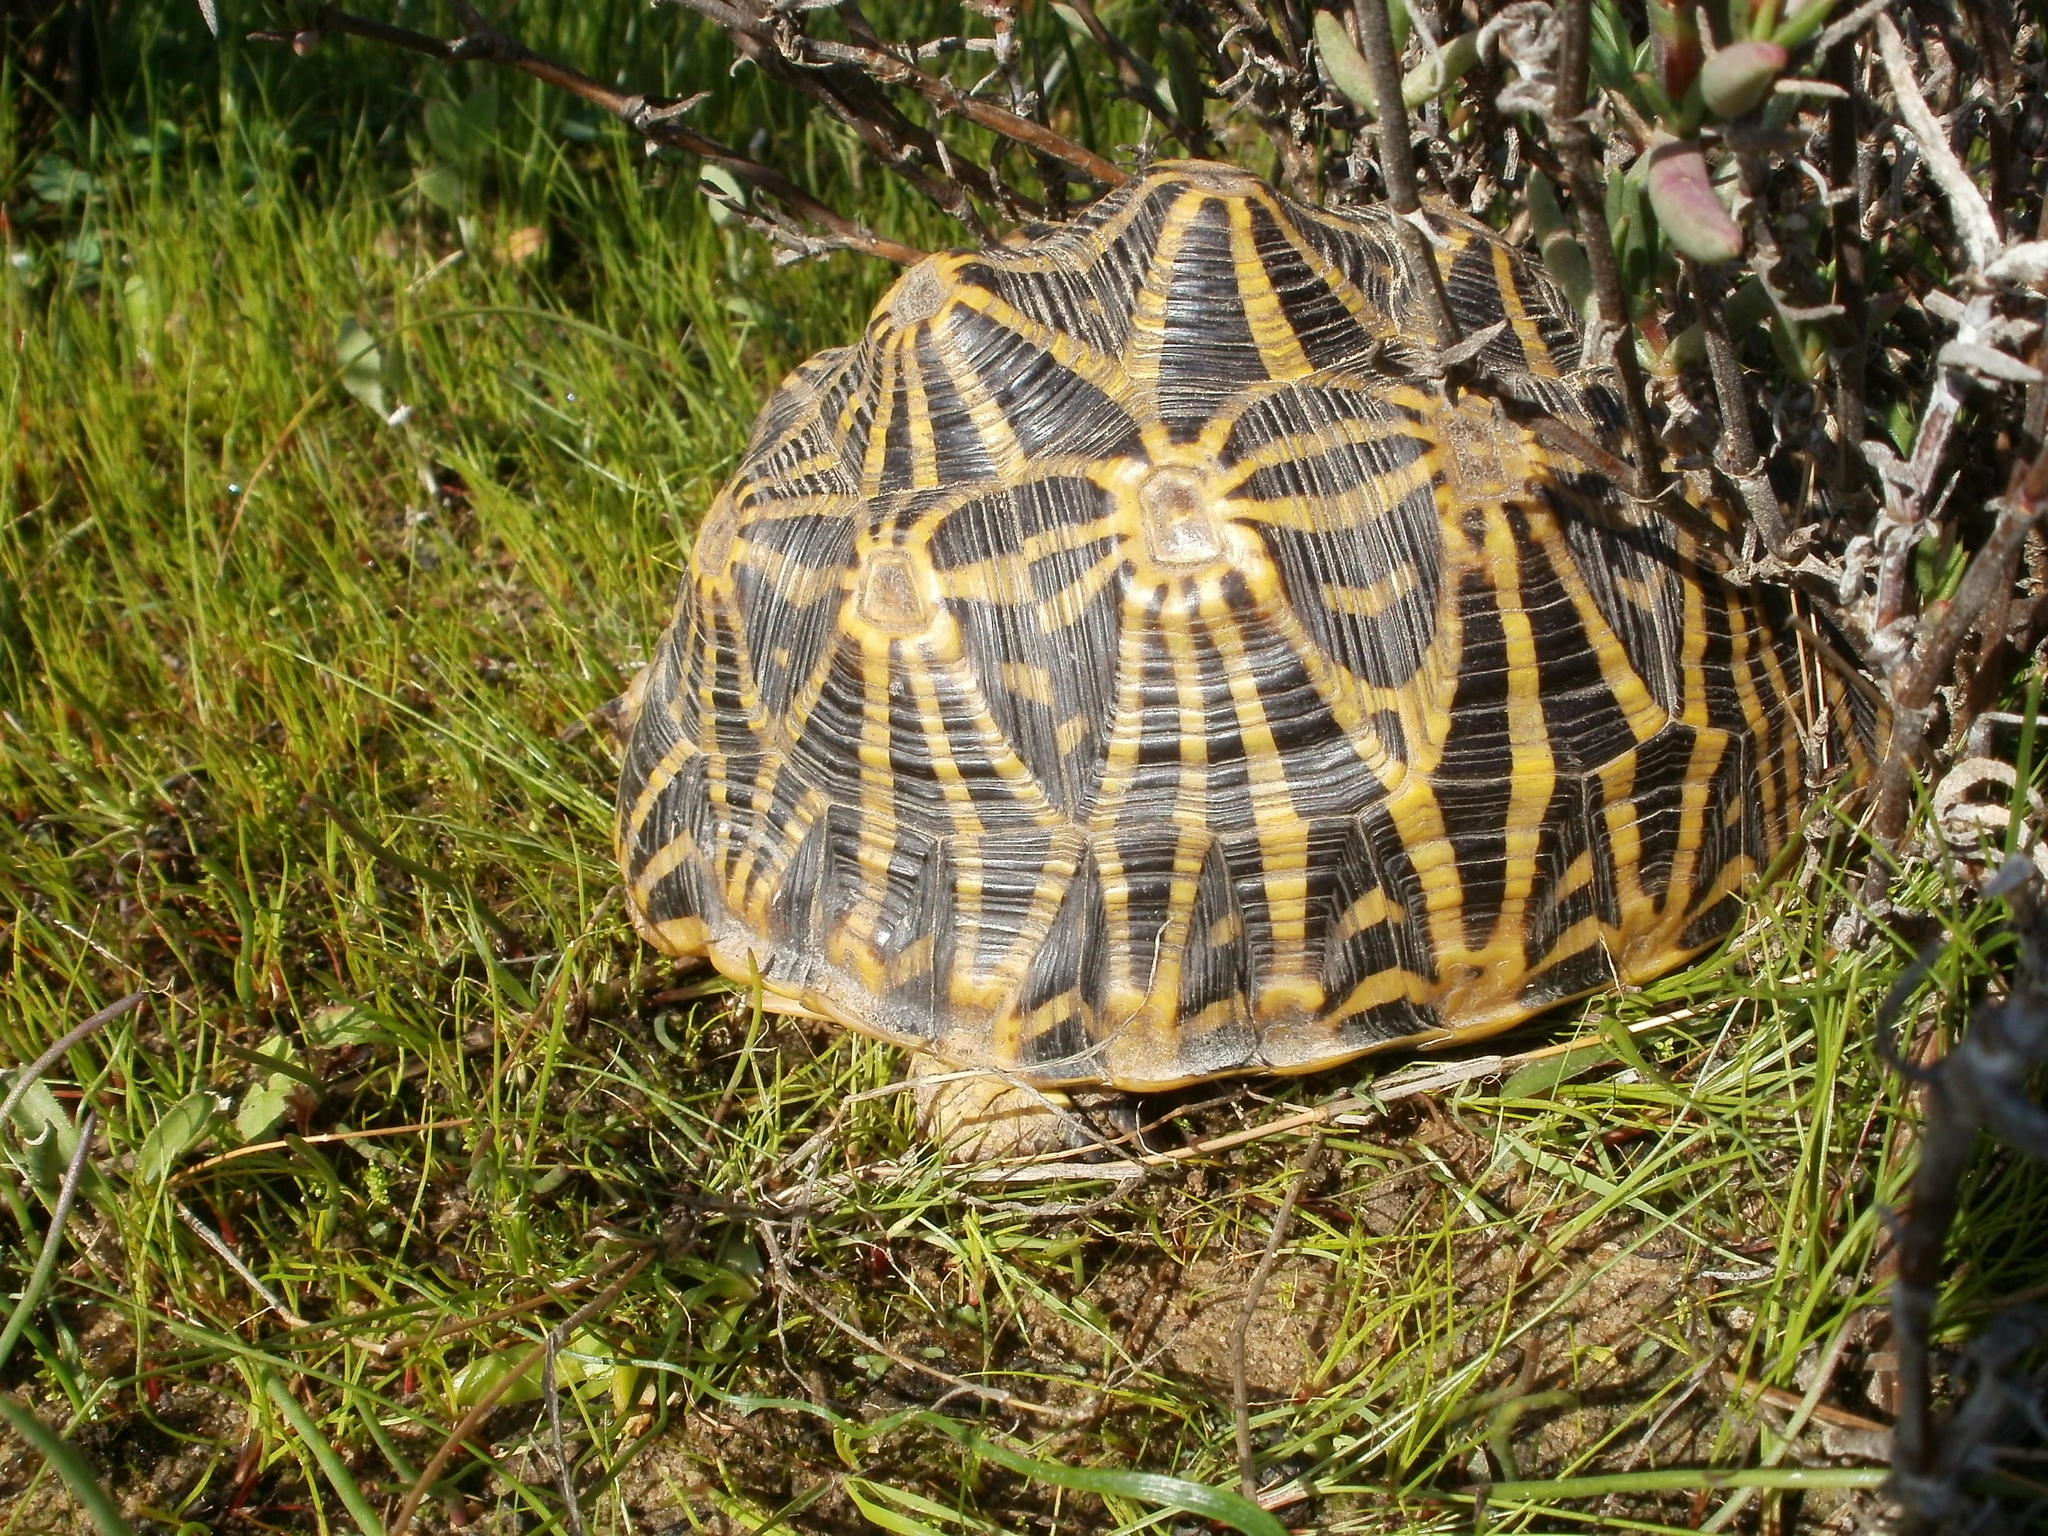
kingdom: Animalia
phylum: Chordata
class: Testudines
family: Testudinidae
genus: Psammobates
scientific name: Psammobates geometricus
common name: Geometric tortoise
